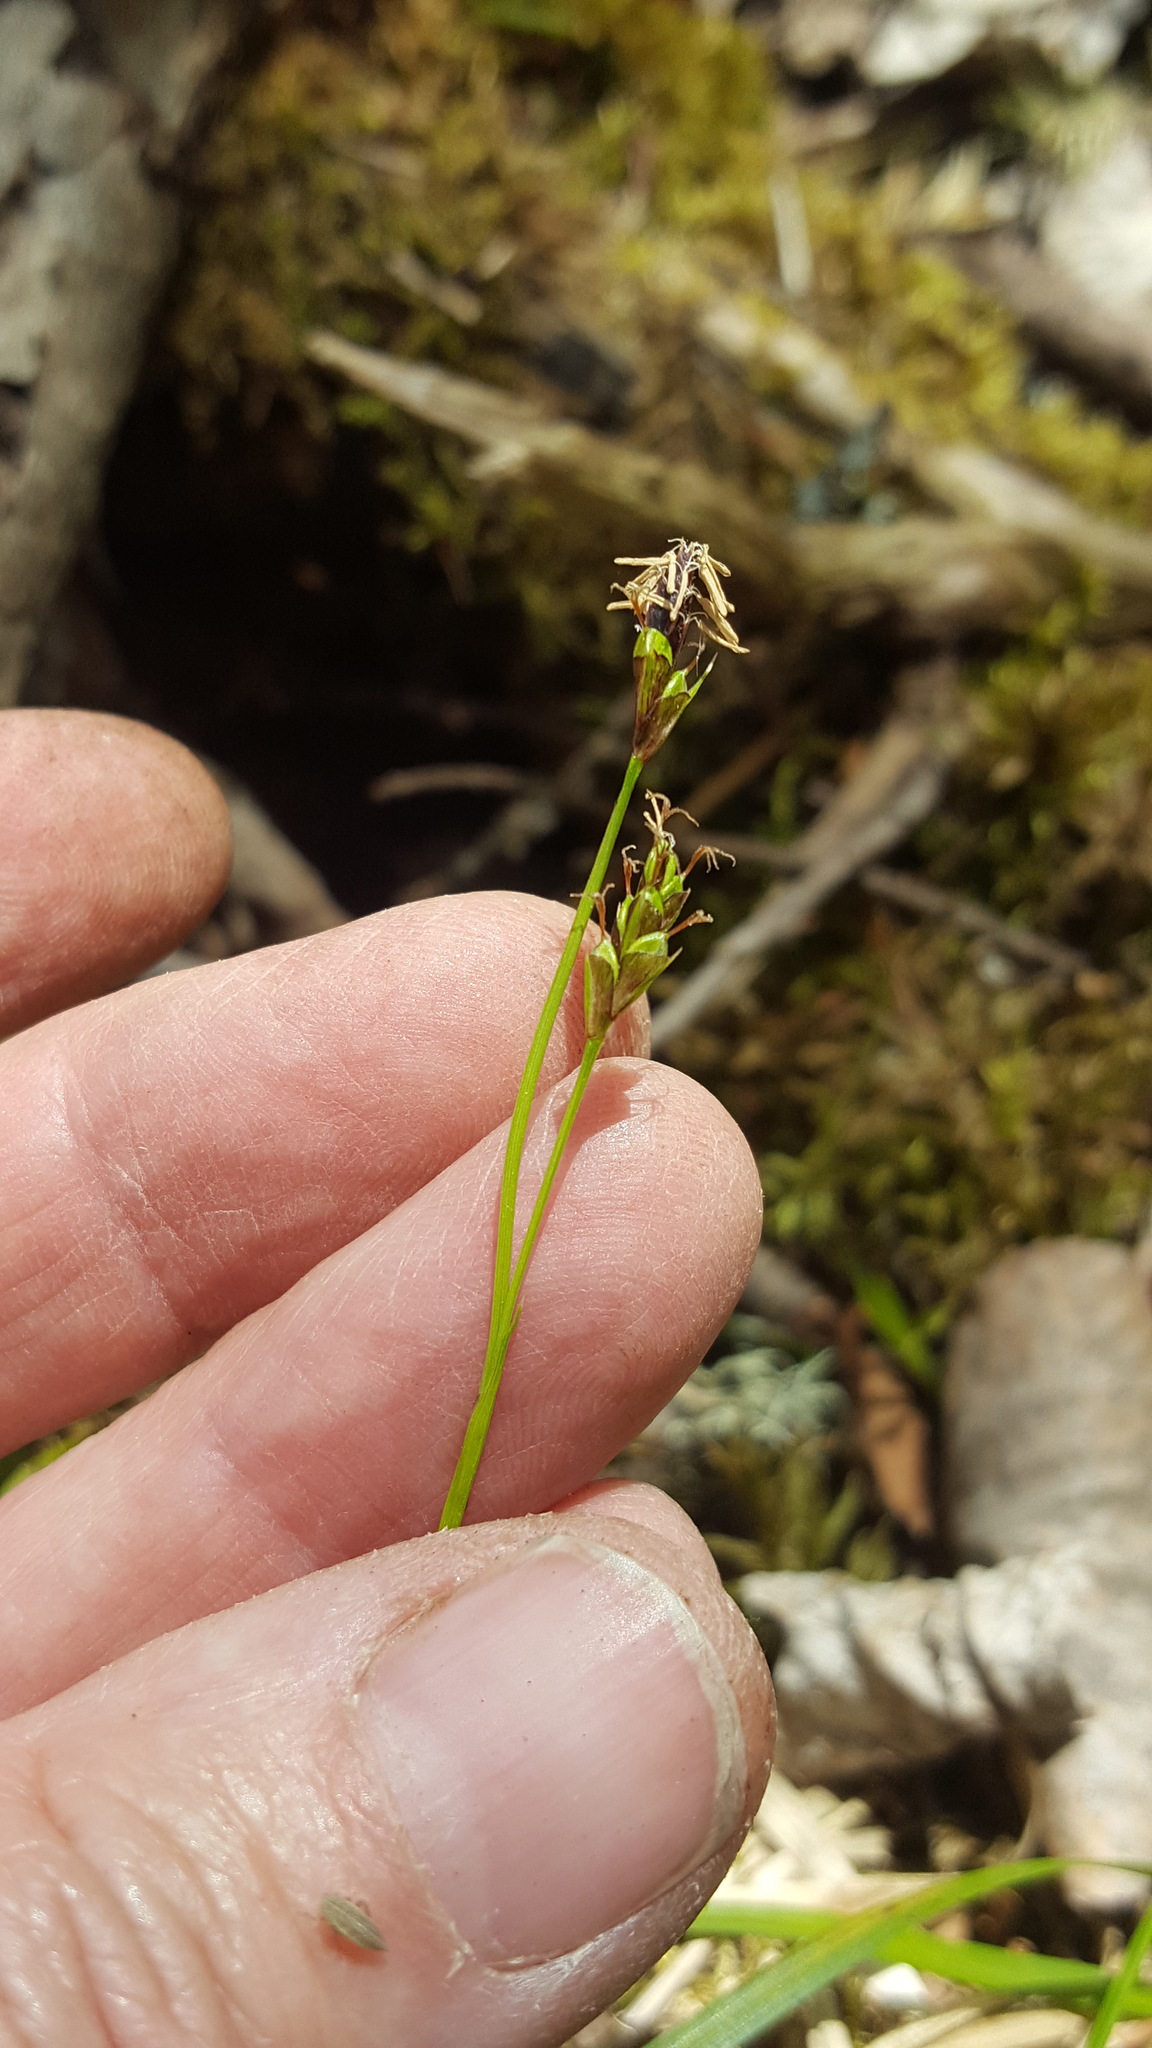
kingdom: Plantae
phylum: Tracheophyta
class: Liliopsida
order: Poales
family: Cyperaceae
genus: Carex
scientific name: Carex pedunculata
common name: Pedunculate sedge
